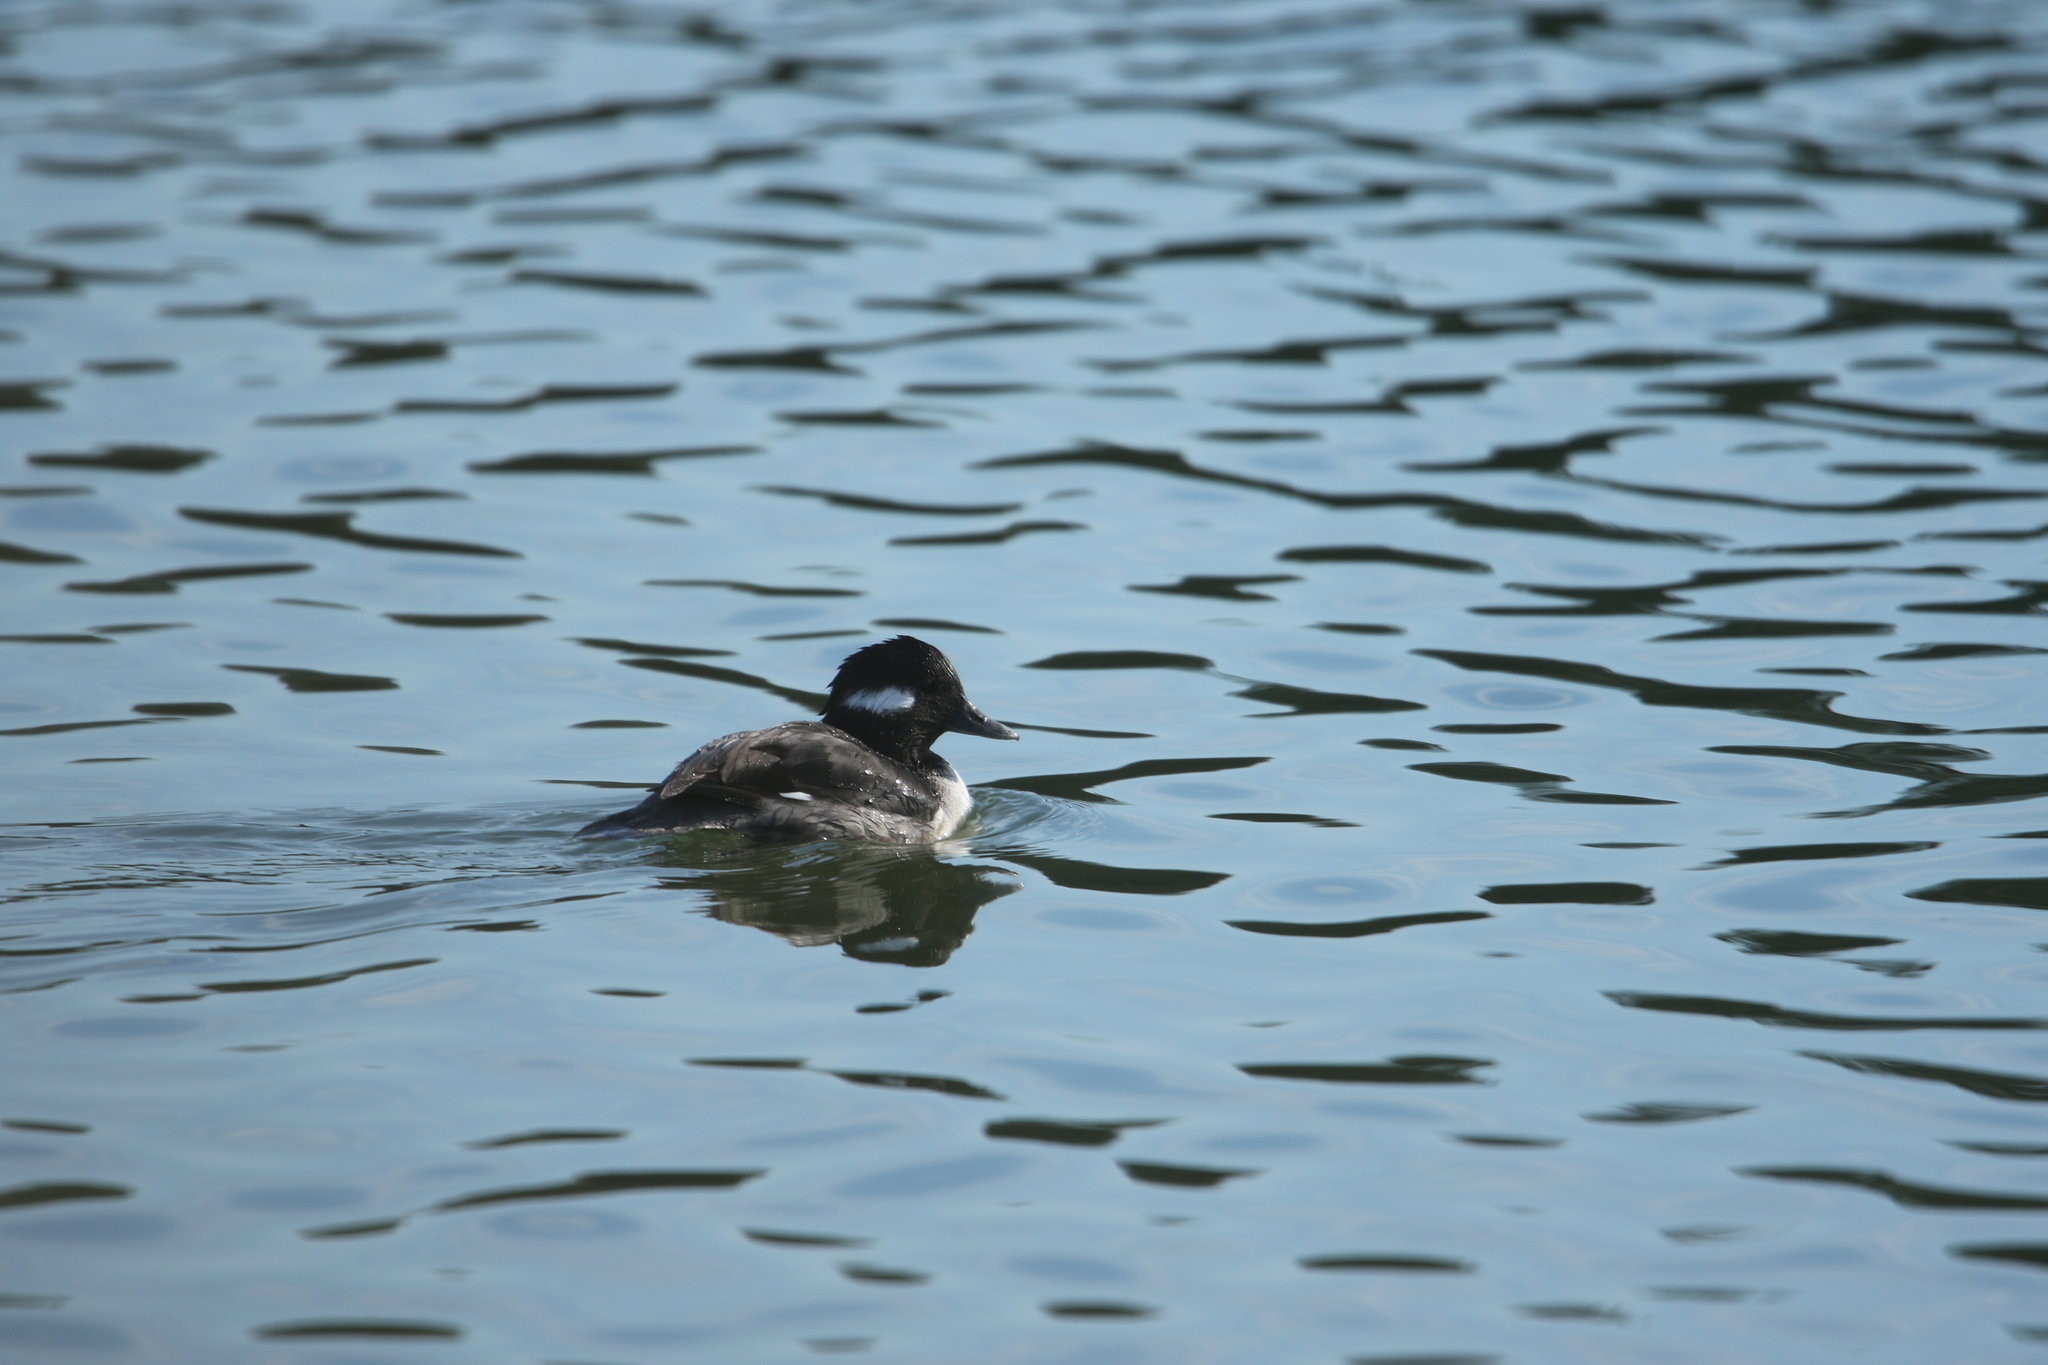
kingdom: Animalia
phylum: Chordata
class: Aves
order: Anseriformes
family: Anatidae
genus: Bucephala
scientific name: Bucephala albeola
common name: Bufflehead
